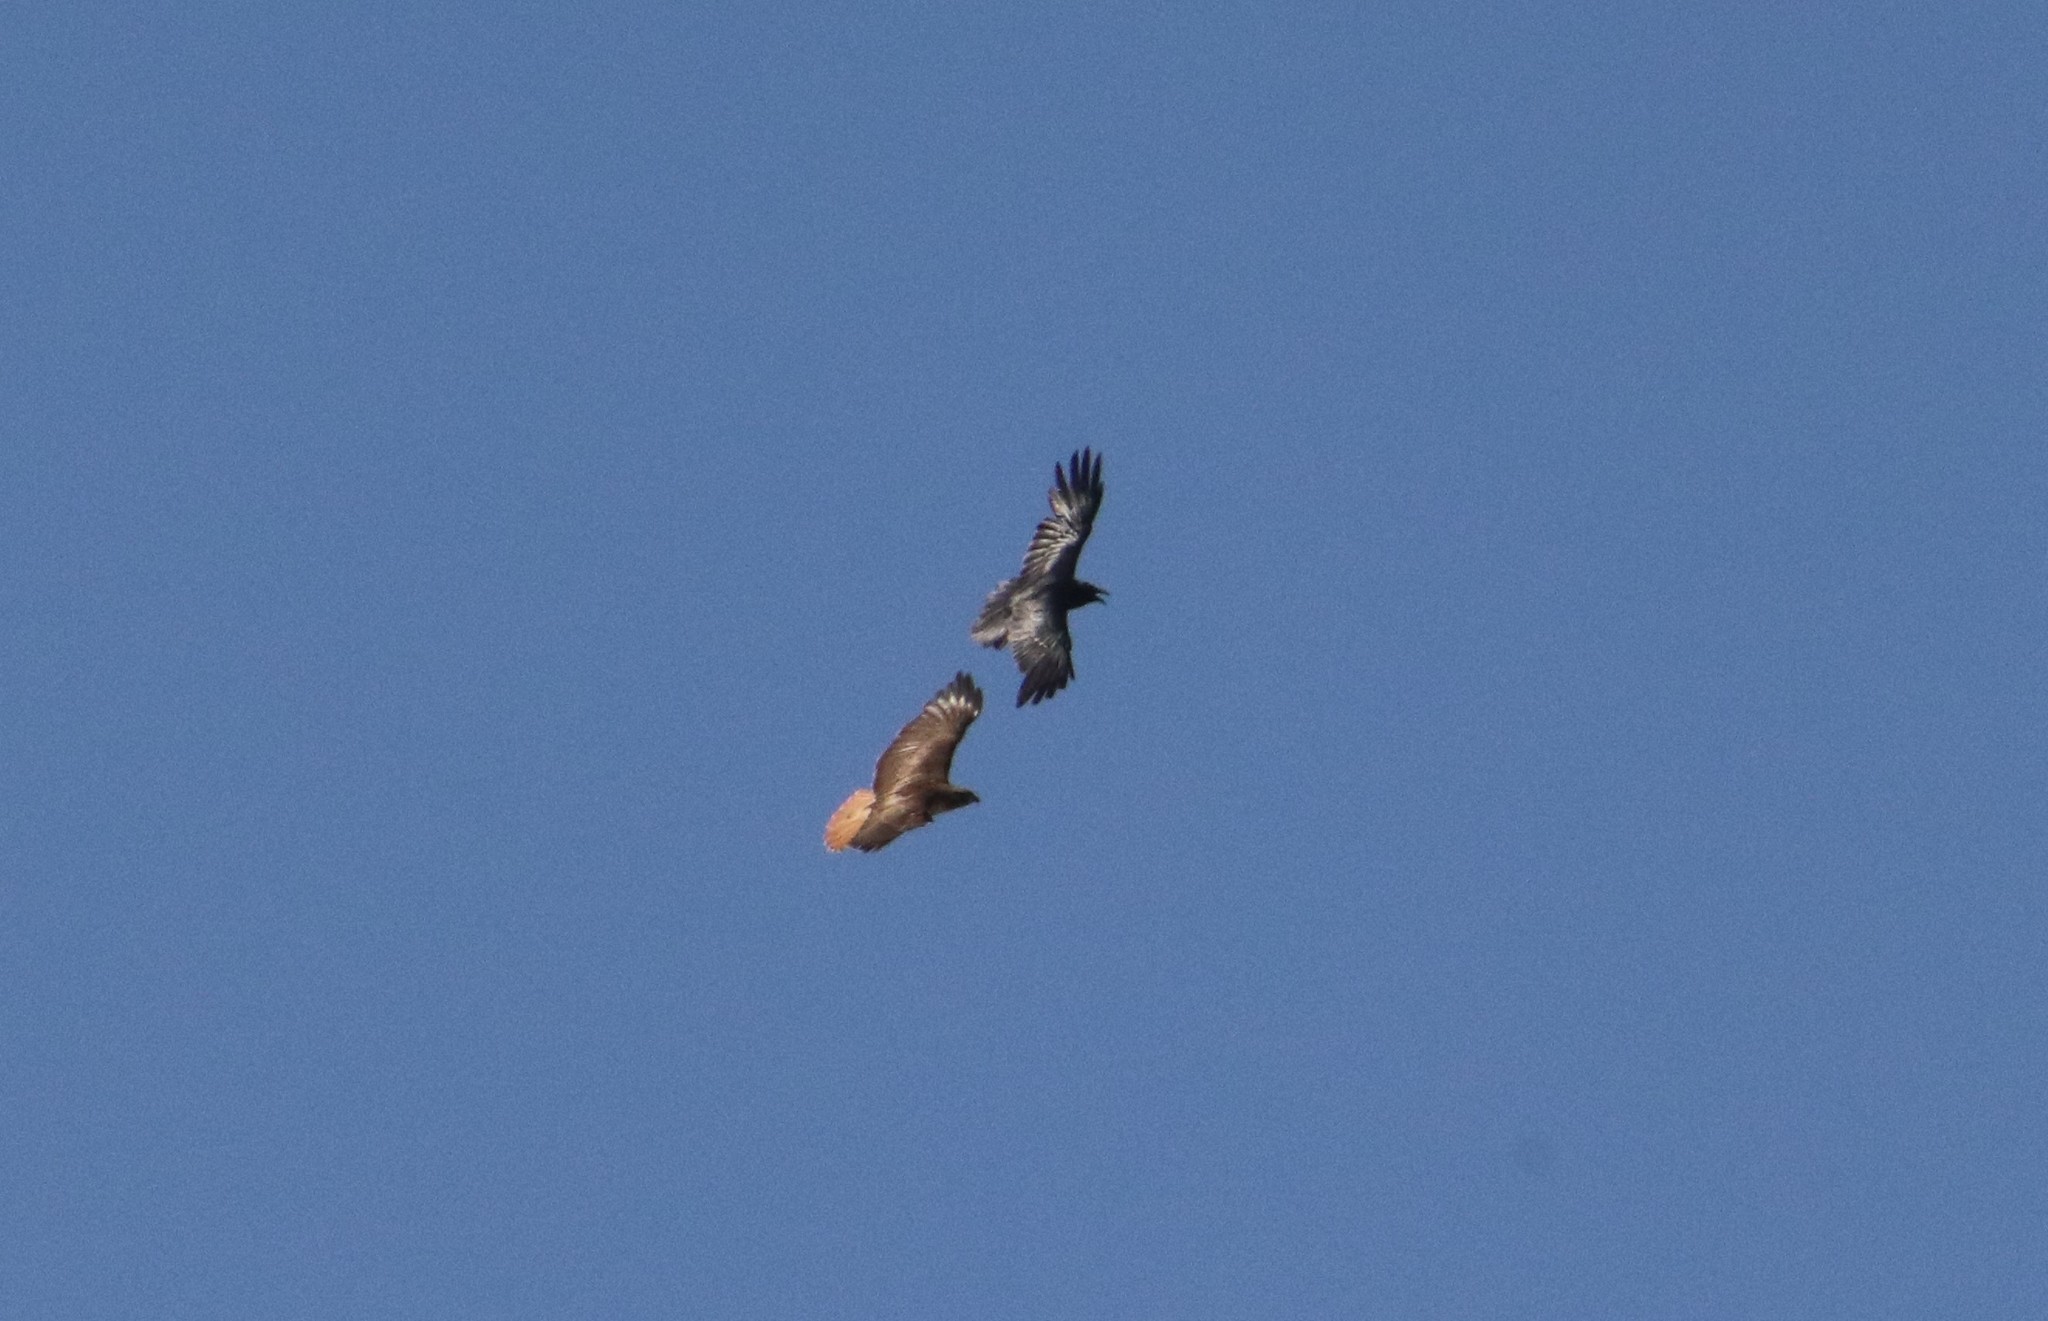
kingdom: Animalia
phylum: Chordata
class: Aves
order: Accipitriformes
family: Accipitridae
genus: Buteo
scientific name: Buteo jamaicensis
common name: Red-tailed hawk
